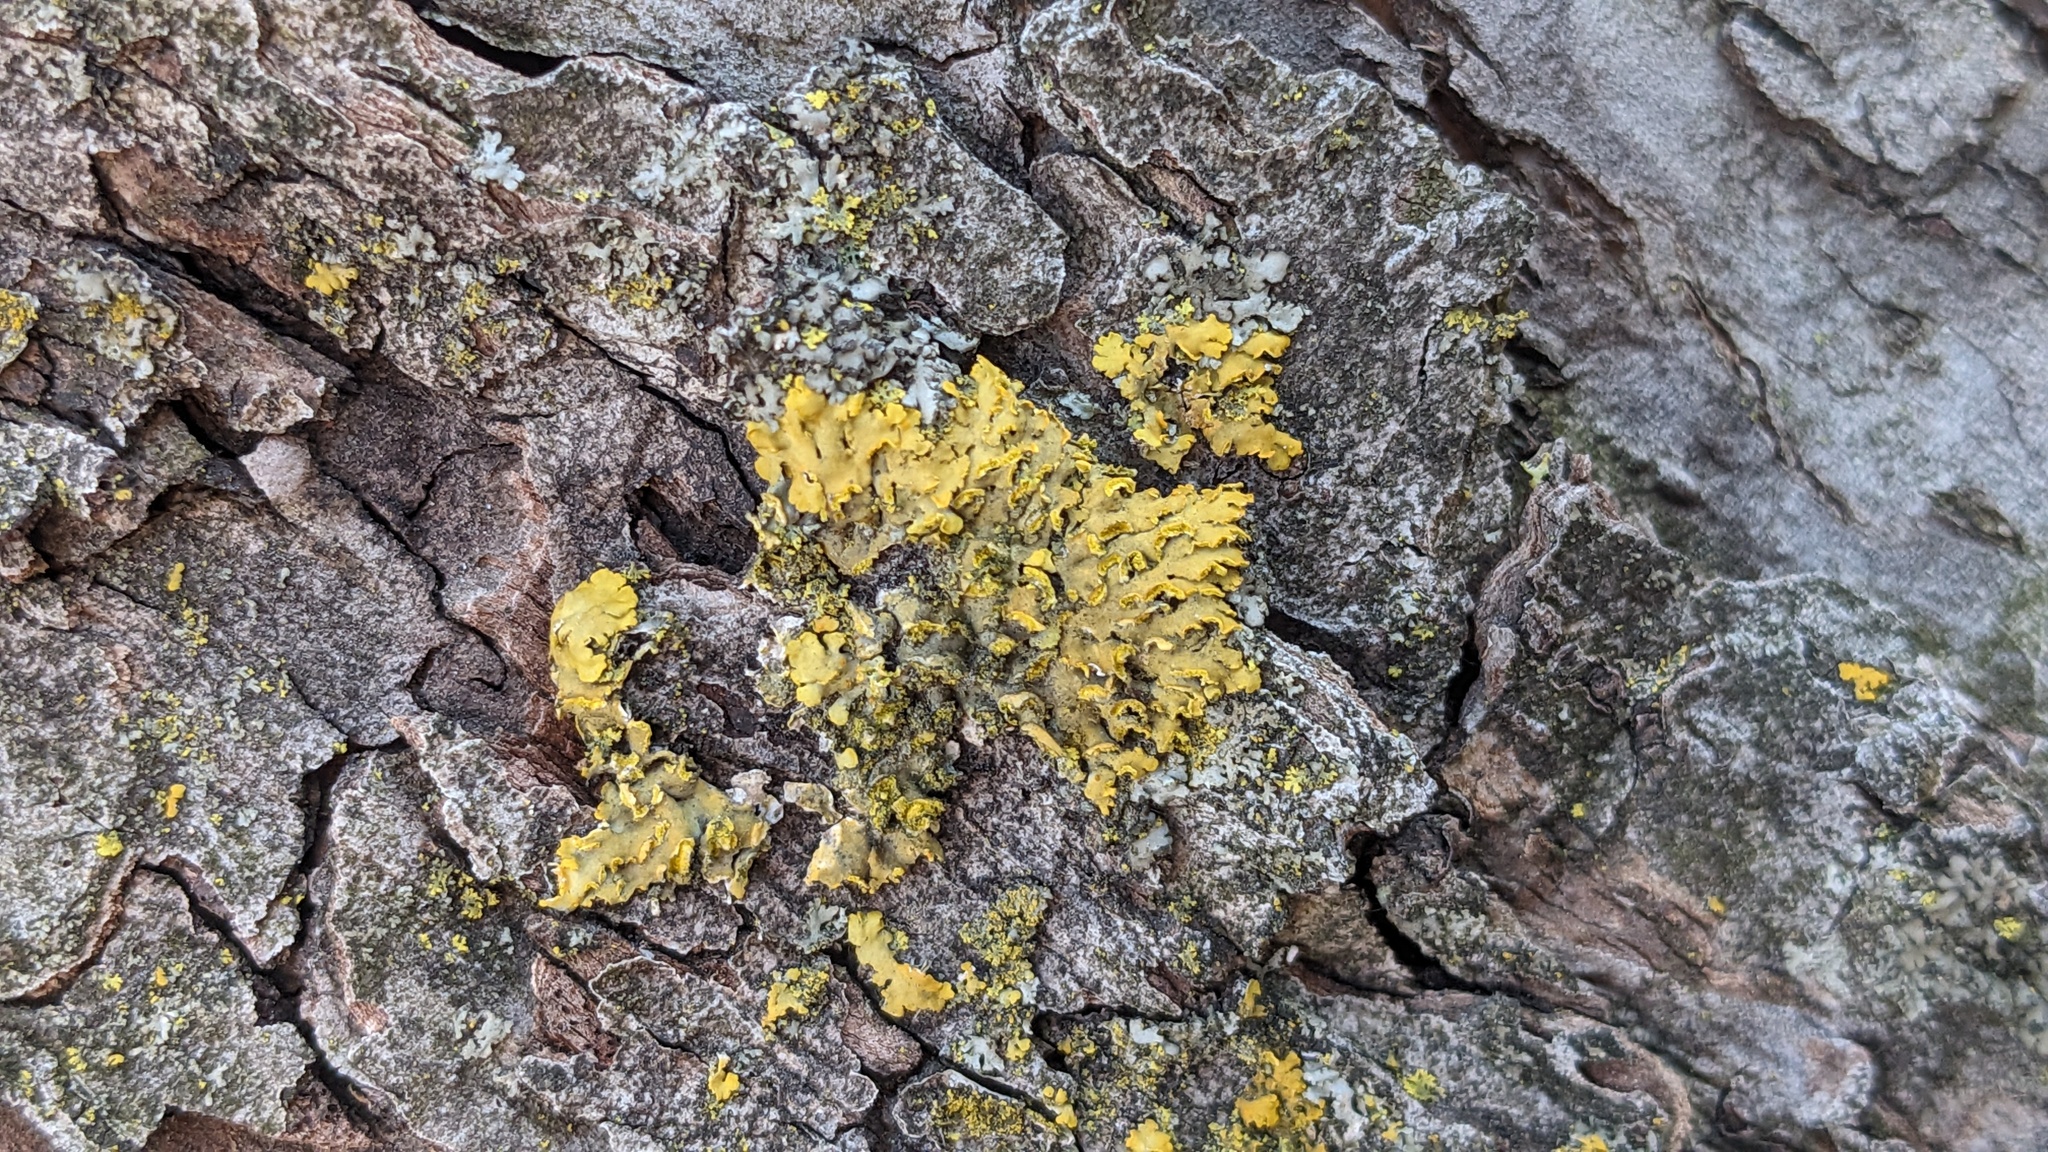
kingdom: Fungi
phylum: Ascomycota
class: Lecanoromycetes
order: Teloschistales
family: Teloschistaceae
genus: Oxneria
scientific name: Oxneria fallax
